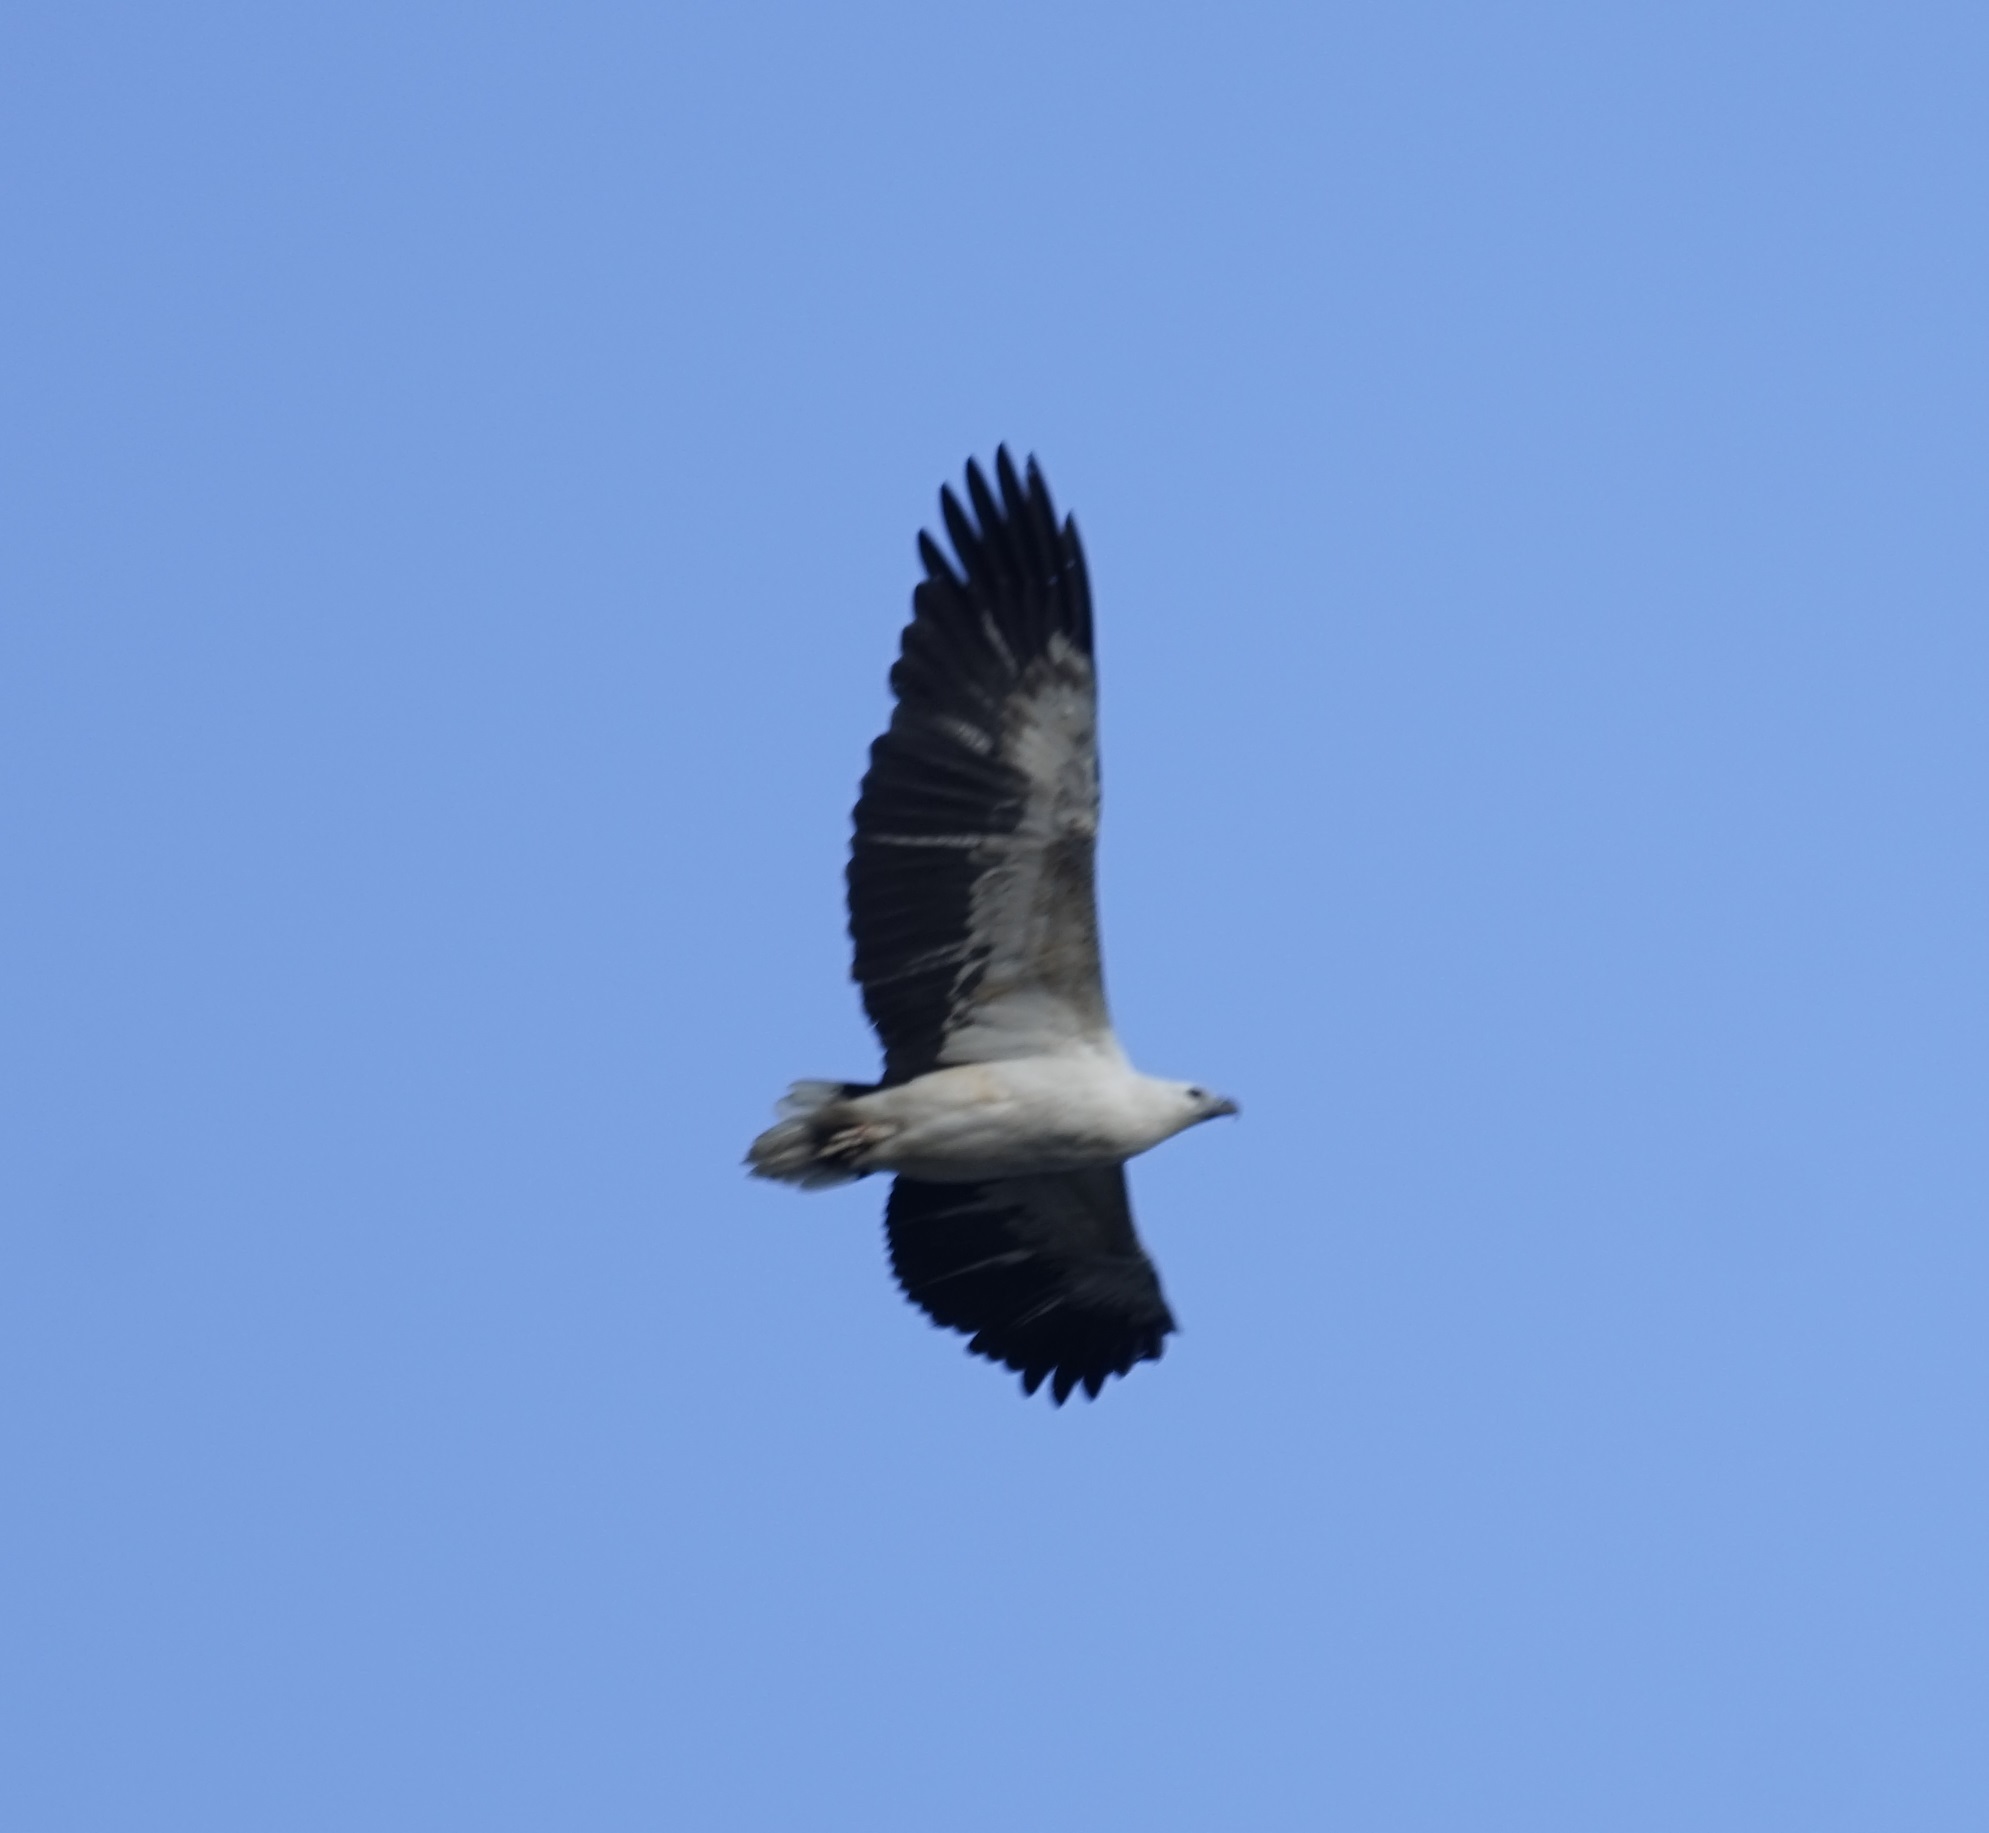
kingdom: Animalia
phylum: Chordata
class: Aves
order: Accipitriformes
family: Accipitridae
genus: Haliaeetus
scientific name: Haliaeetus leucogaster
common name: White-bellied sea eagle
